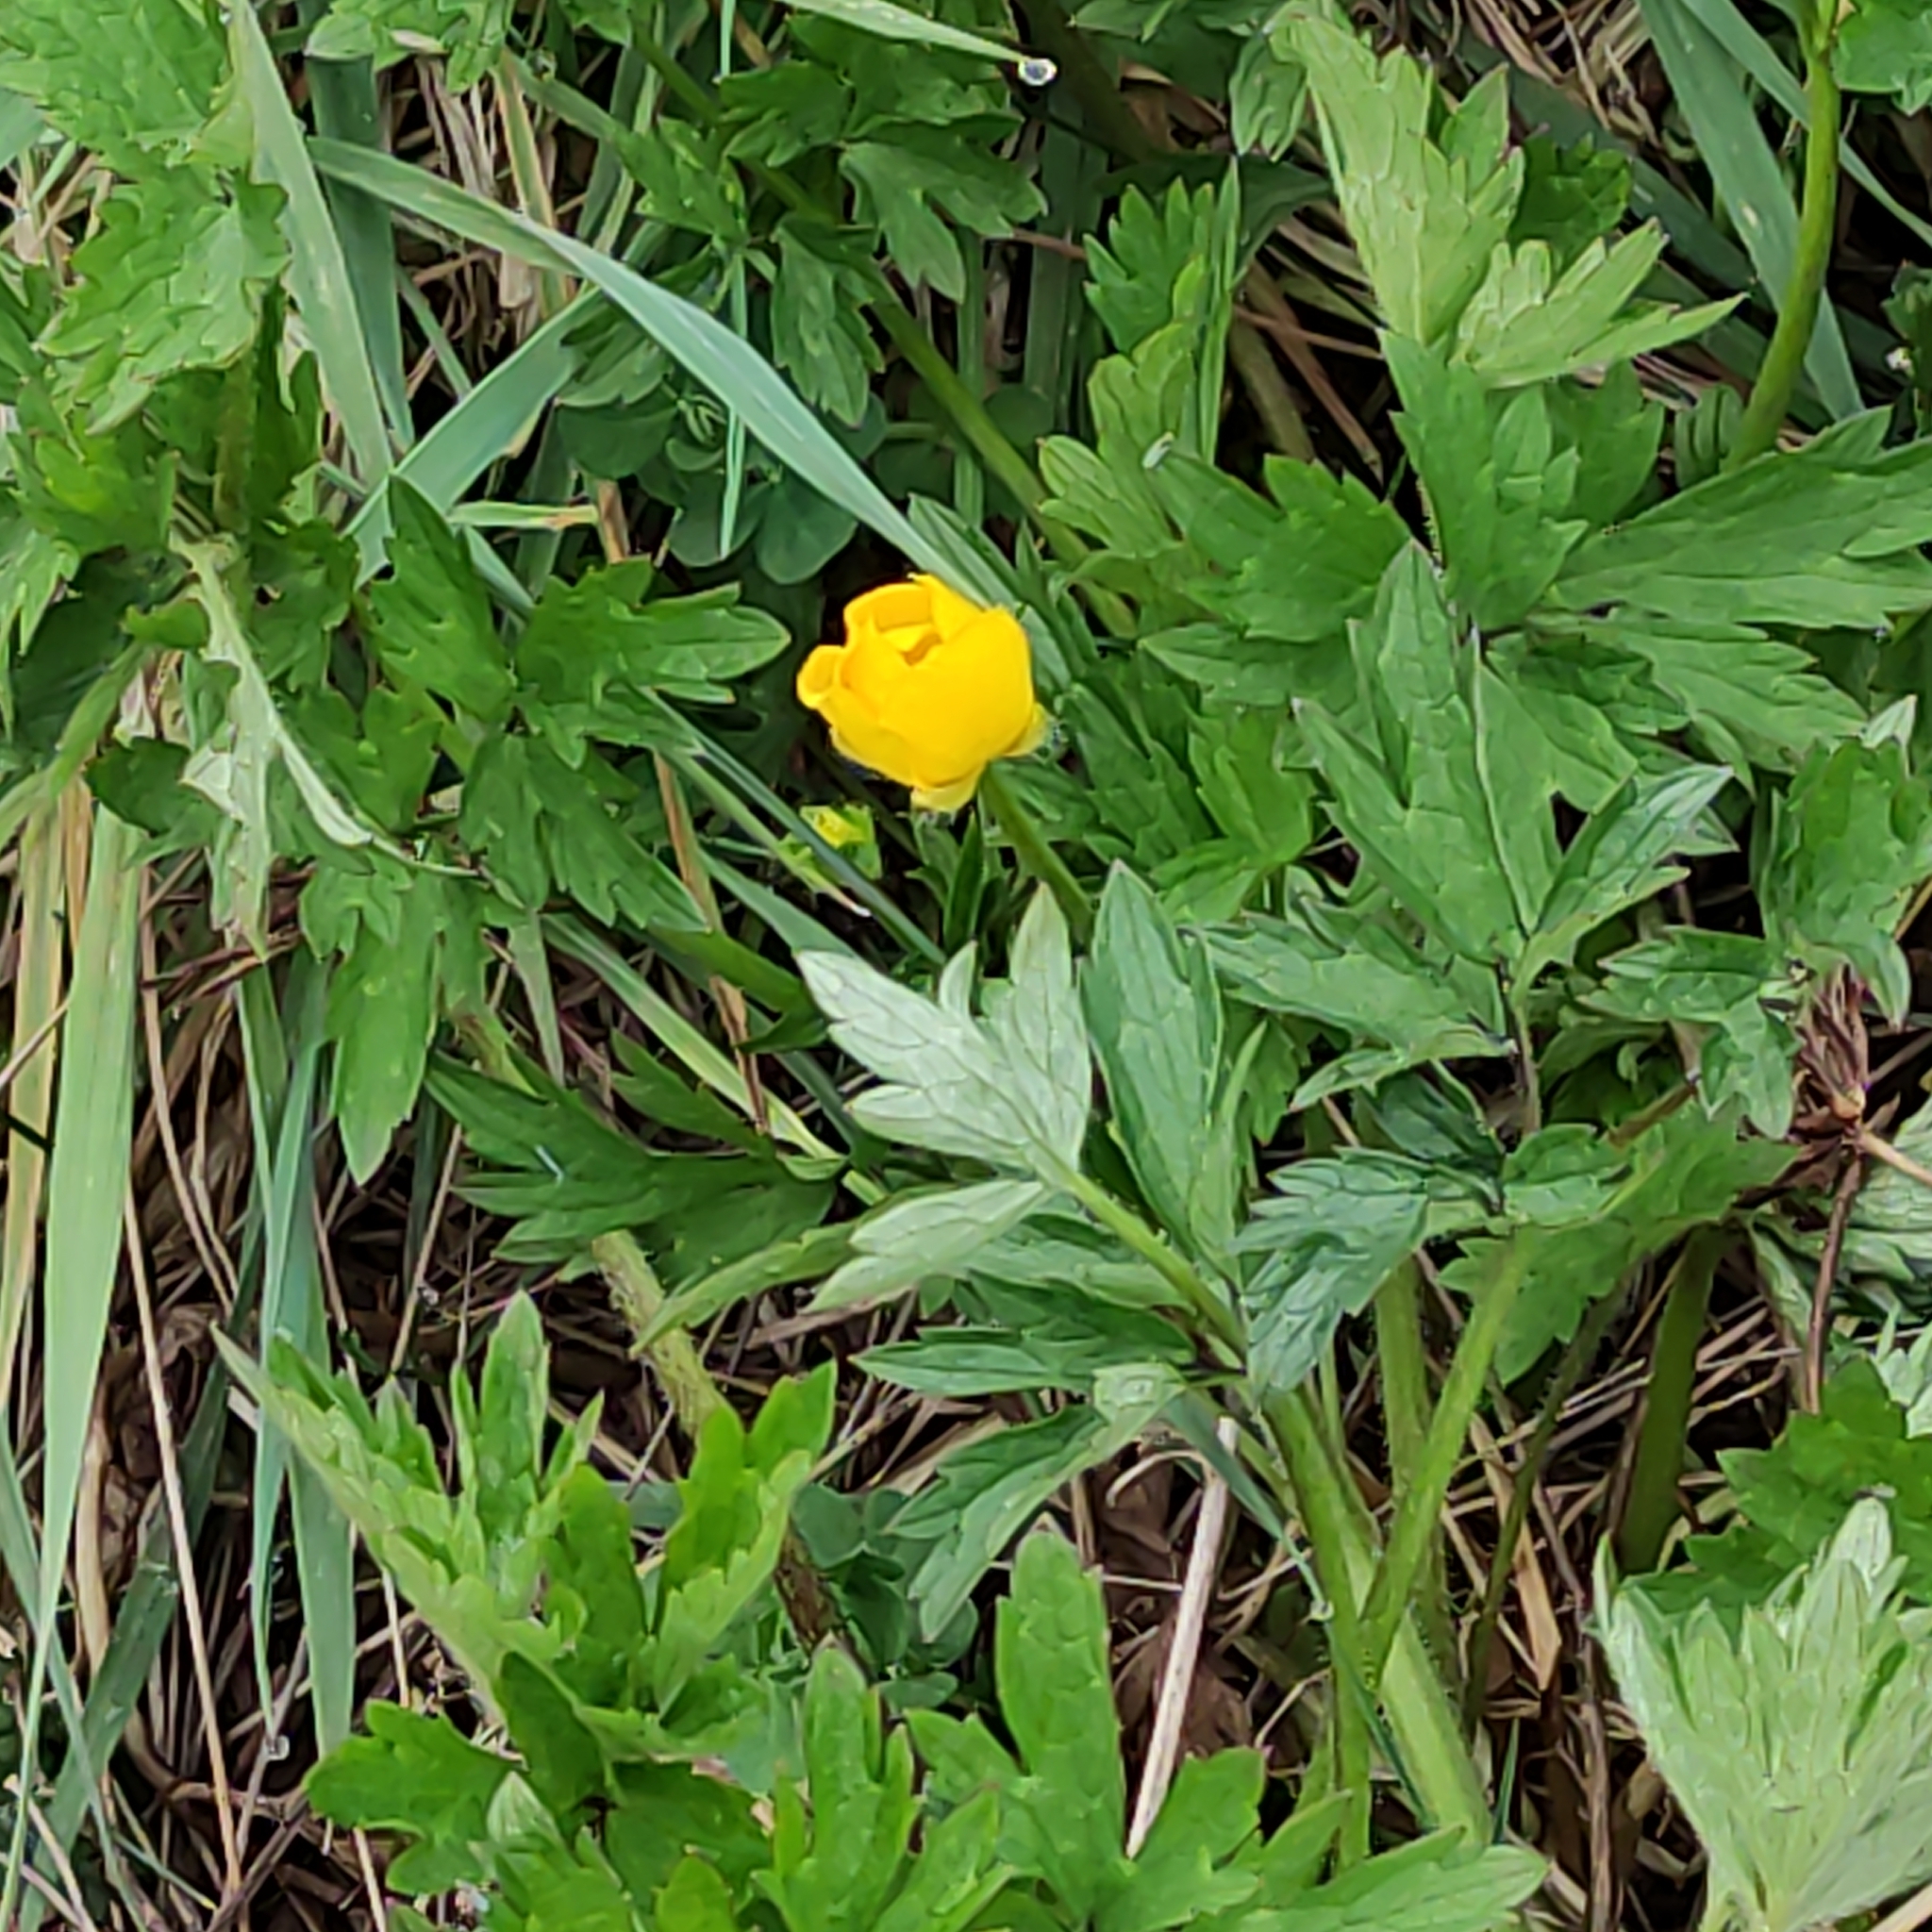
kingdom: Plantae
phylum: Tracheophyta
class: Magnoliopsida
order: Ranunculales
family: Ranunculaceae
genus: Ranunculus
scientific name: Ranunculus repens
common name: Creeping buttercup
